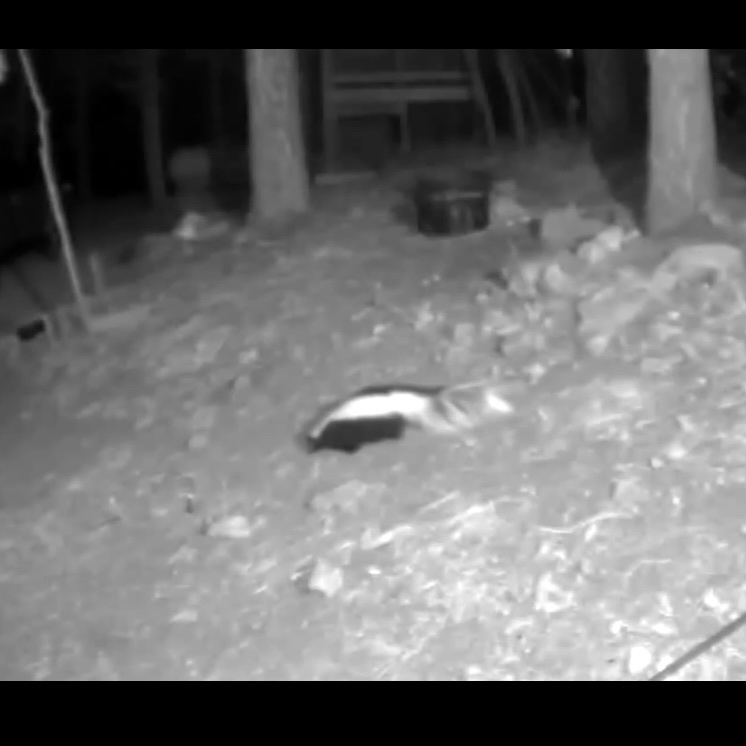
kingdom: Animalia
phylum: Chordata
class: Mammalia
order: Carnivora
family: Mephitidae
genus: Mephitis
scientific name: Mephitis mephitis
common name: Striped skunk
